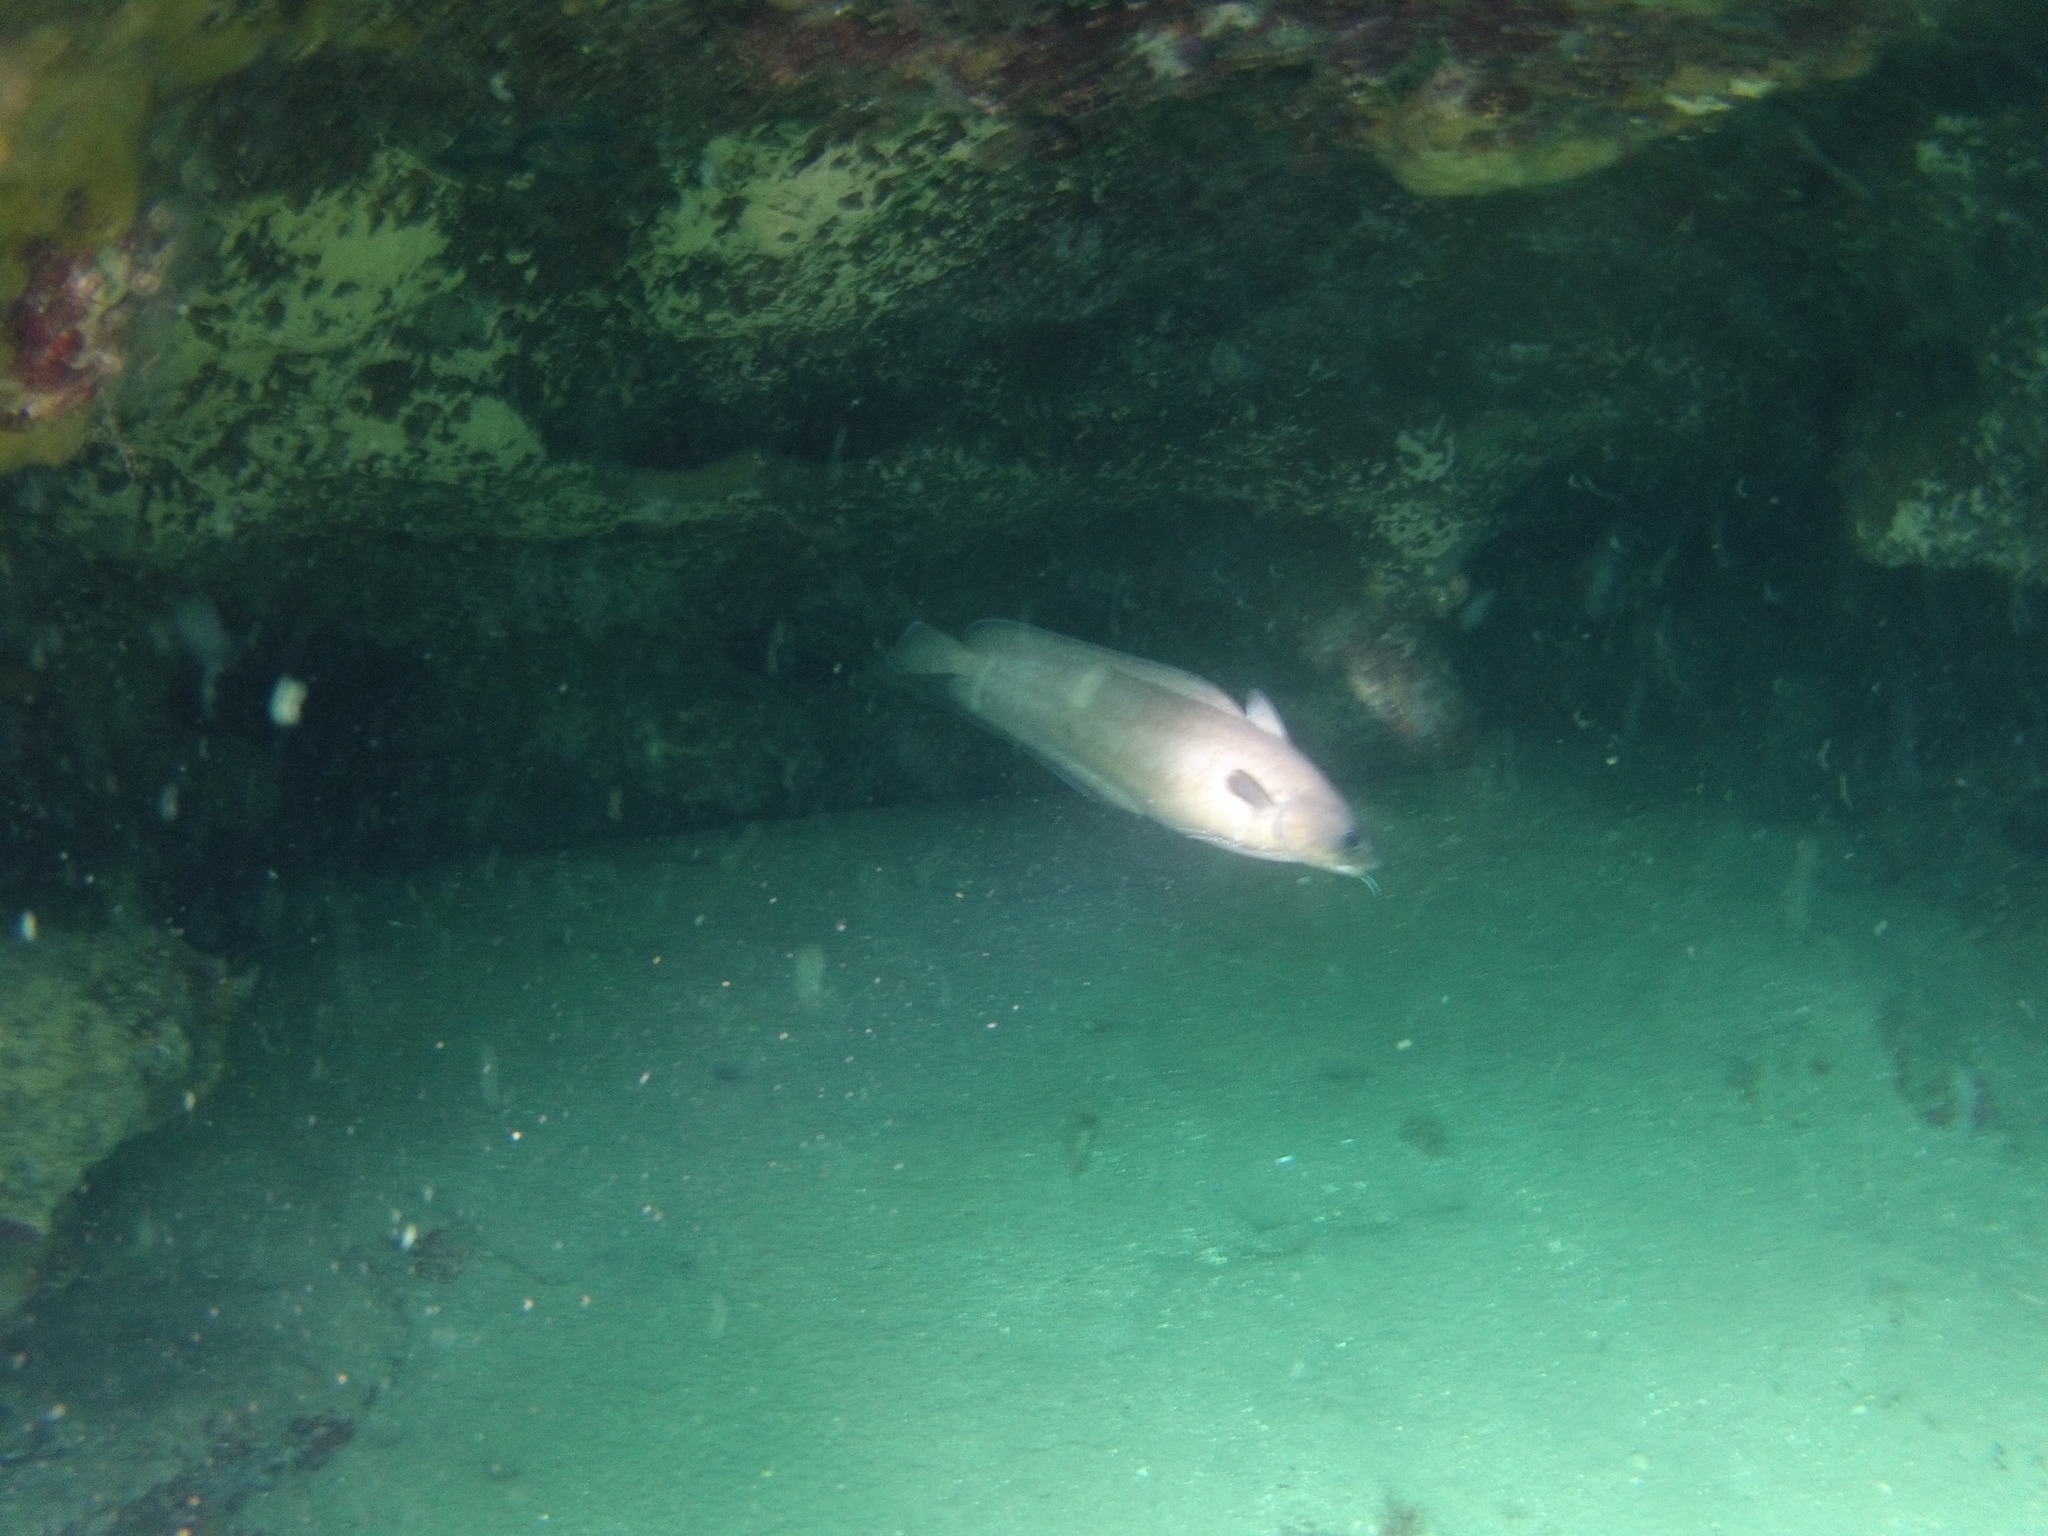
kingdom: Animalia
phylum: Chordata
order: Gadiformes
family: Phycidae
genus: Phycis
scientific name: Phycis phycis
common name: Forkbeard
